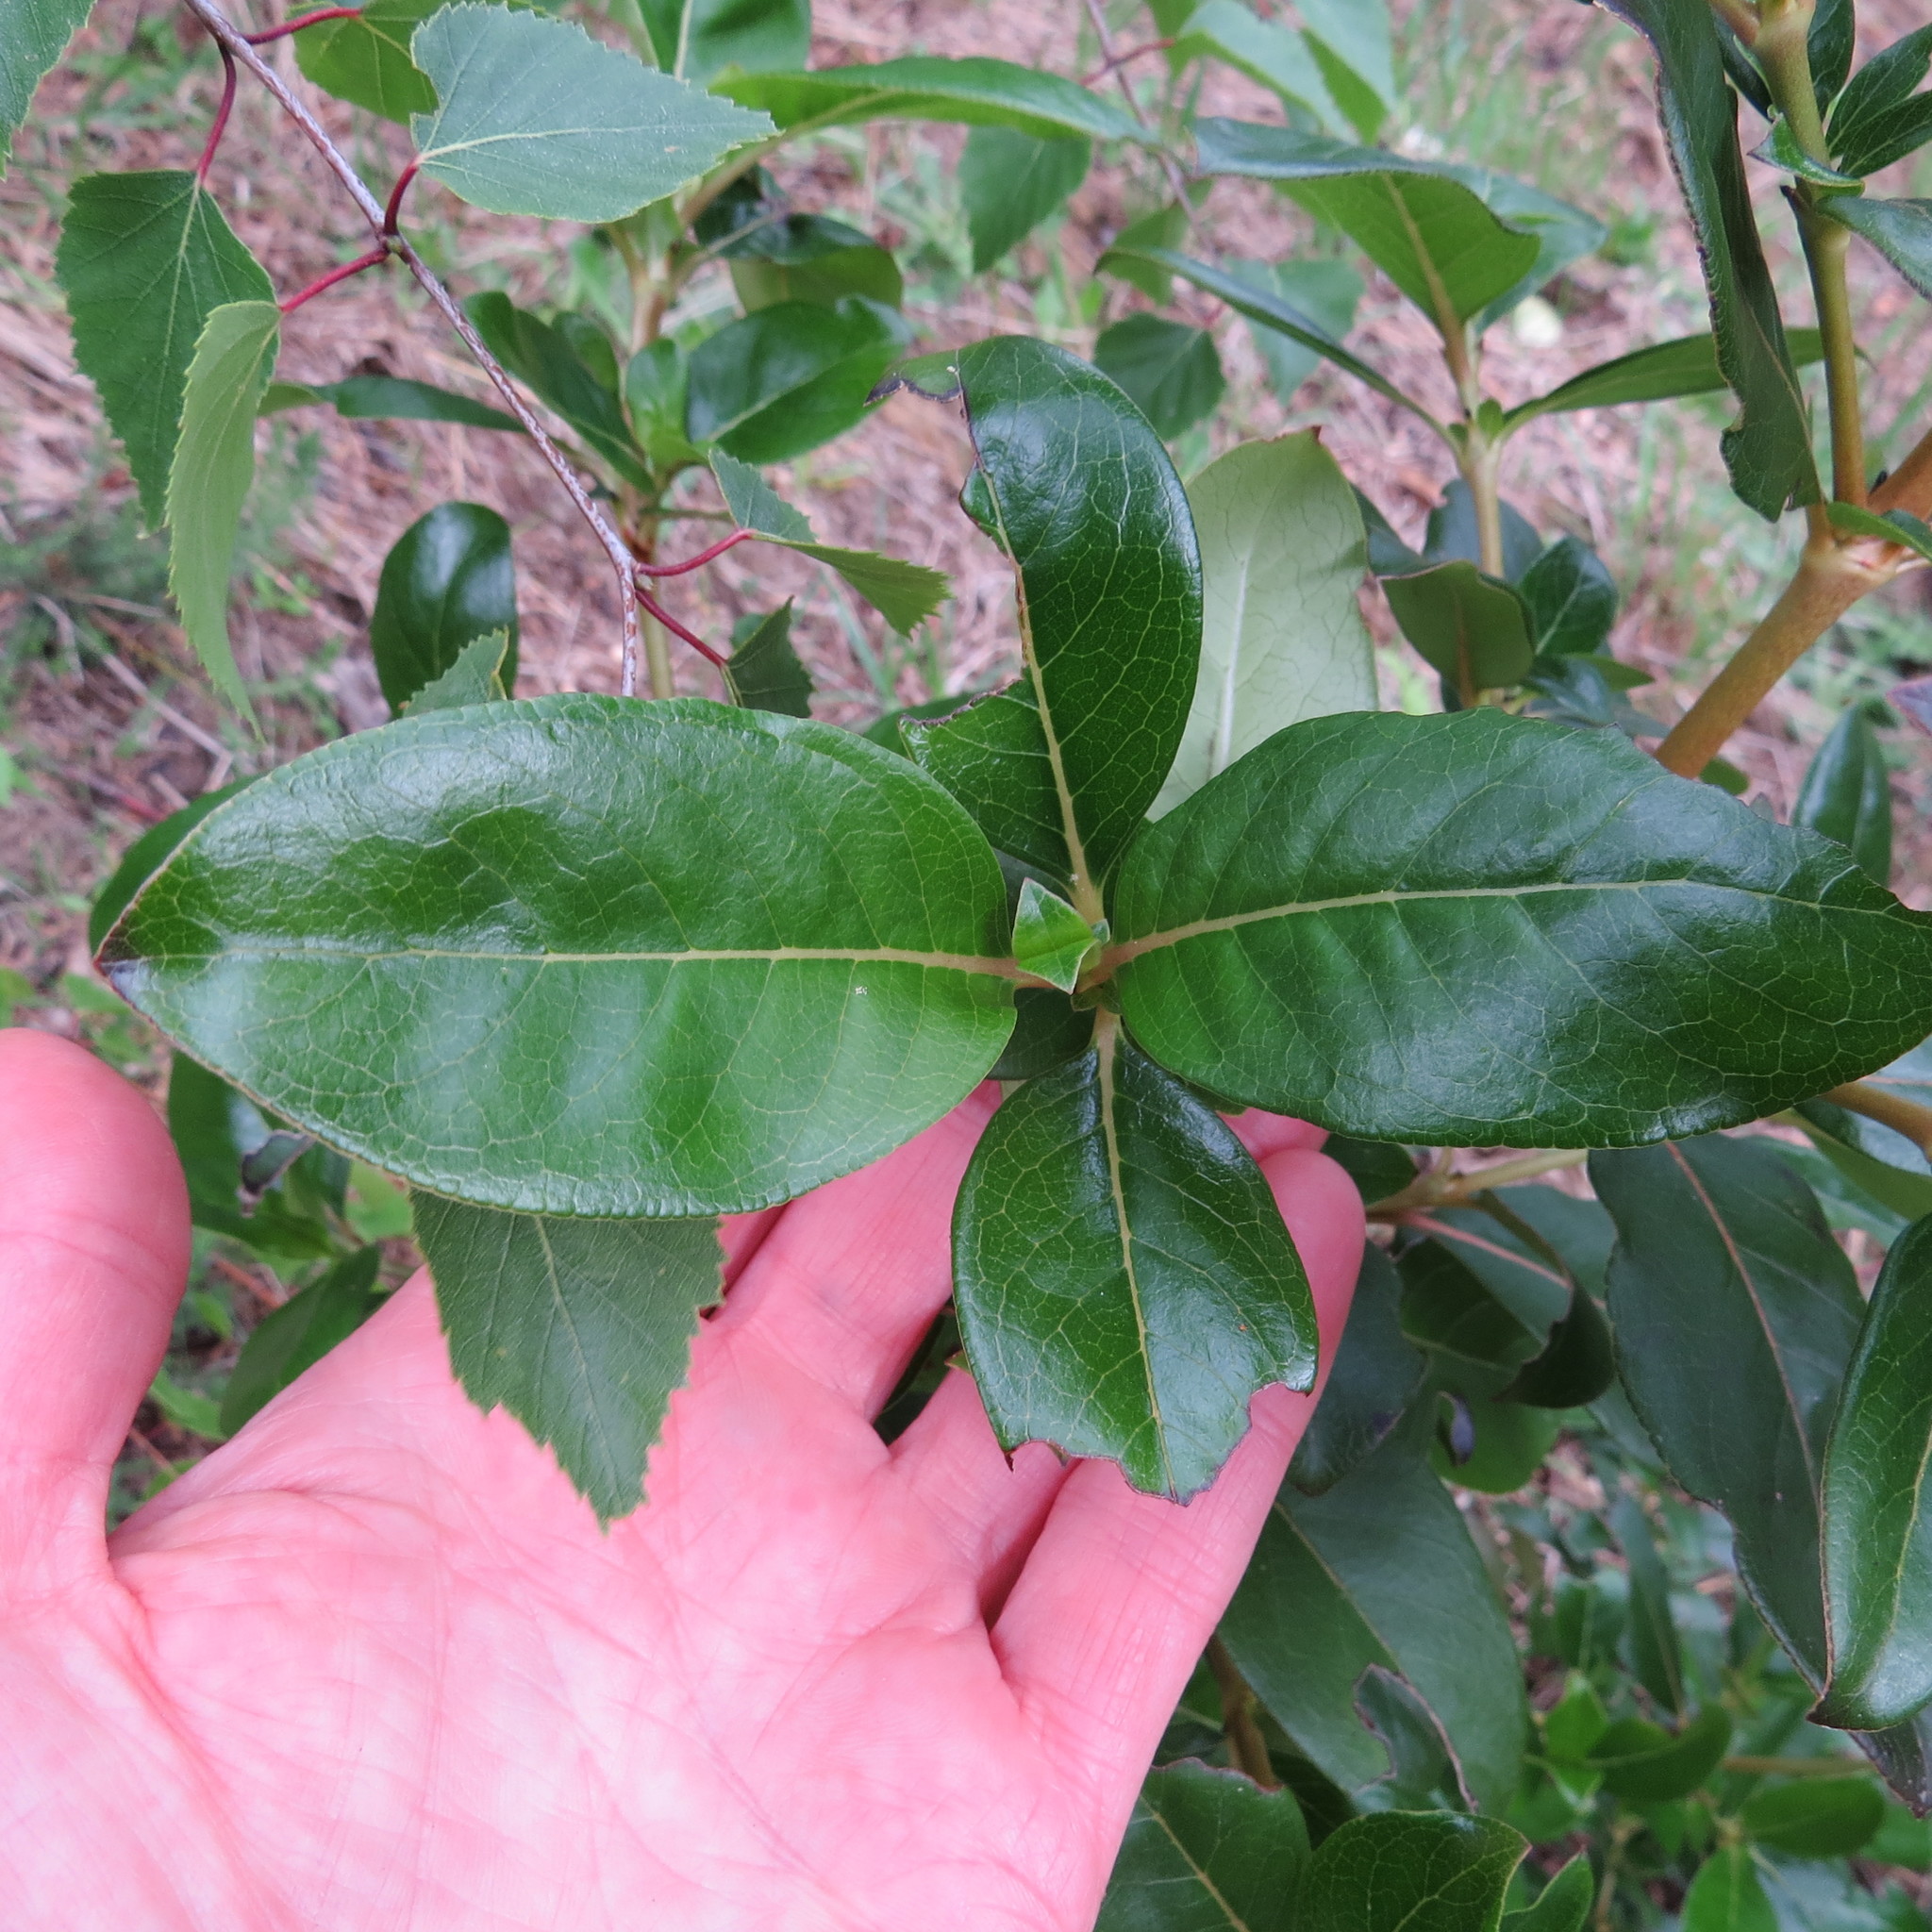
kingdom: Plantae
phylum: Tracheophyta
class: Magnoliopsida
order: Gentianales
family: Rubiaceae
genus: Coprosma
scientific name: Coprosma robusta
